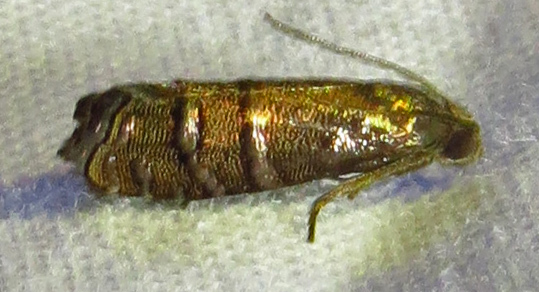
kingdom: Animalia
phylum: Arthropoda
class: Insecta
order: Lepidoptera
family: Tortricidae
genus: Cydia
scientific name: Cydia toreuta
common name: Eastern pine seedworm moth
